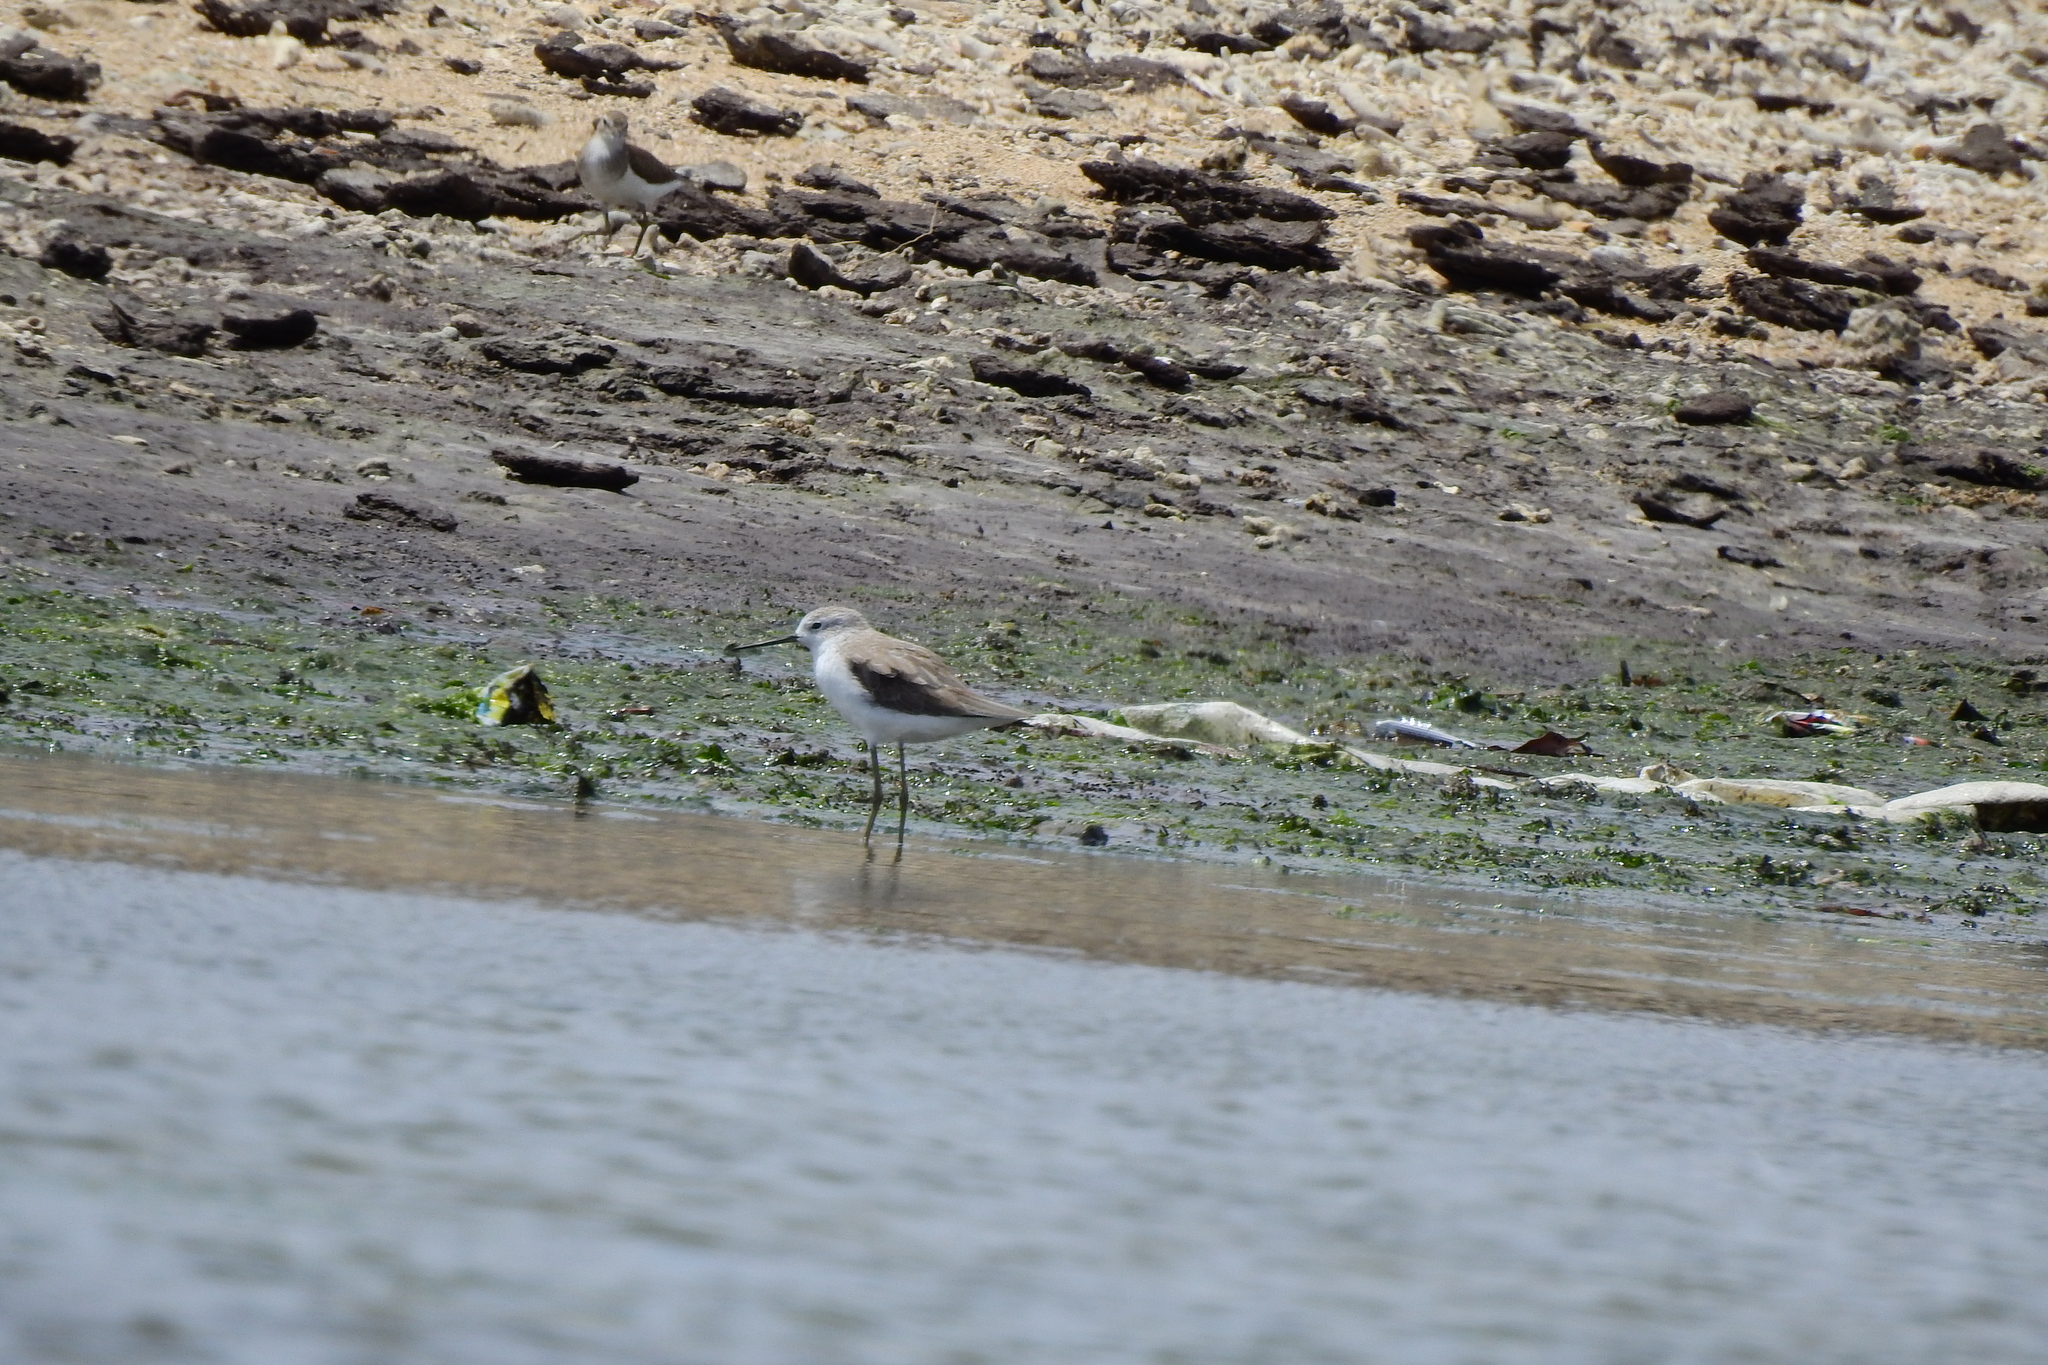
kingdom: Animalia
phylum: Chordata
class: Aves
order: Charadriiformes
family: Scolopacidae
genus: Tringa
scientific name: Tringa stagnatilis
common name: Marsh sandpiper
